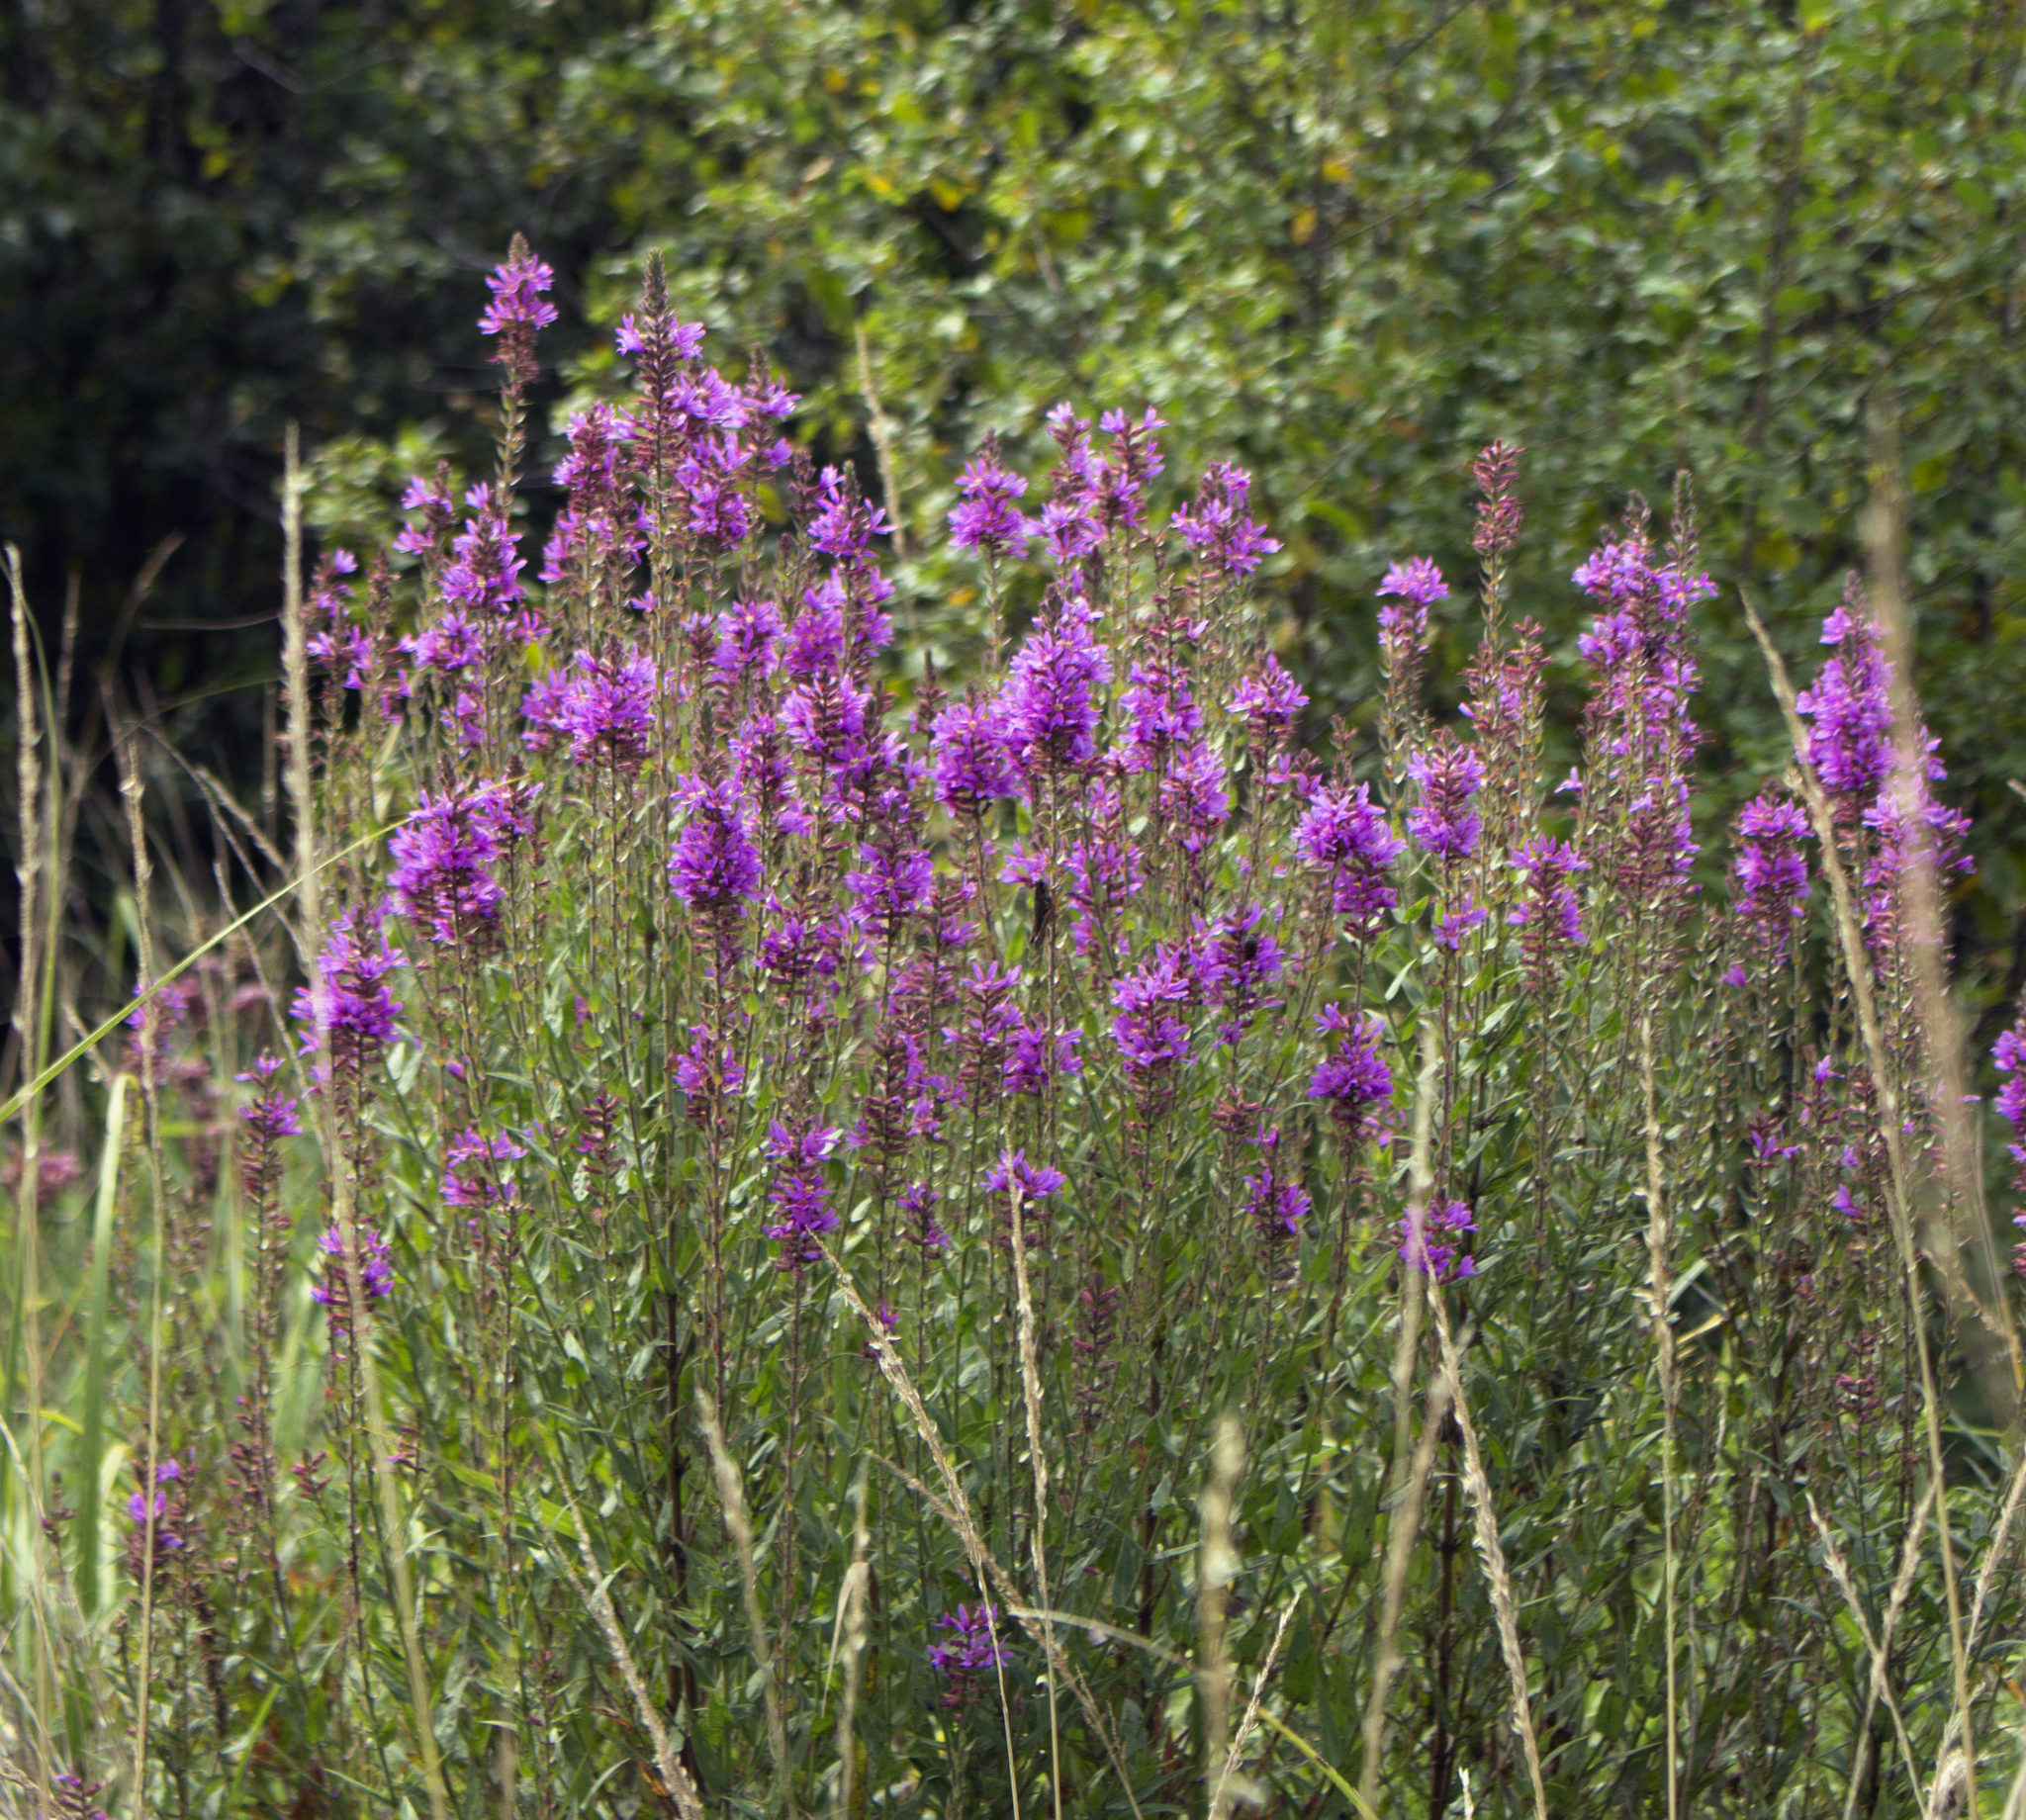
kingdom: Plantae
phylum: Tracheophyta
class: Magnoliopsida
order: Myrtales
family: Lythraceae
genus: Lythrum
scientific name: Lythrum salicaria
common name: Purple loosestrife
